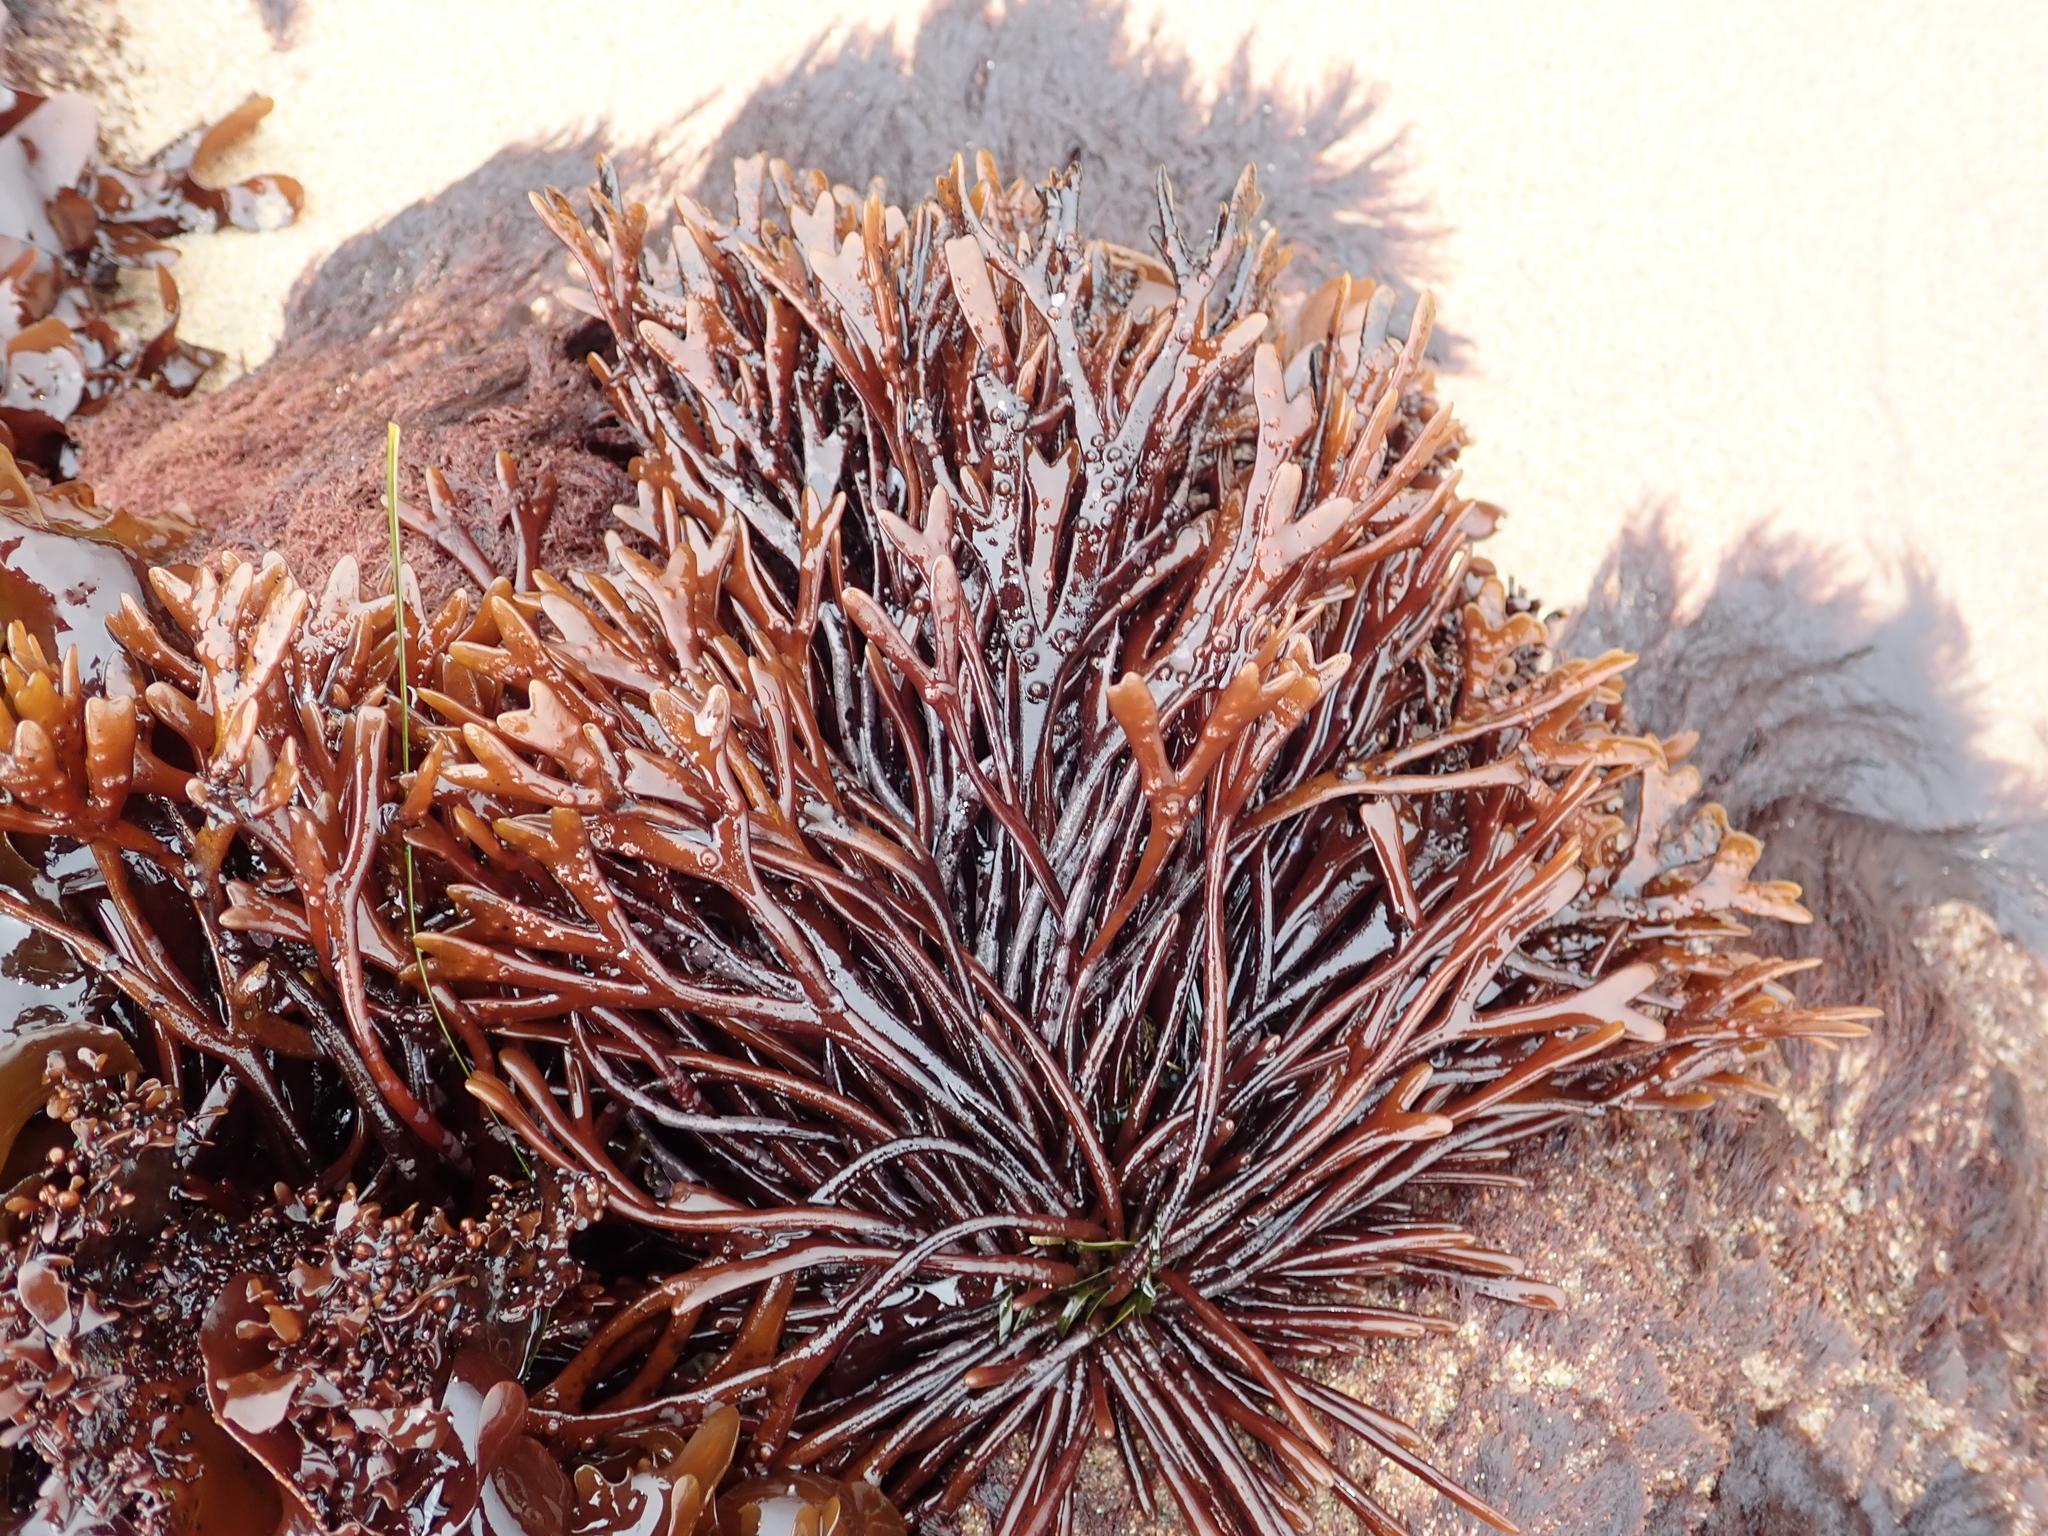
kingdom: Plantae
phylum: Rhodophyta
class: Florideophyceae
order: Gigartinales
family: Phyllophoraceae
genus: Ahnfeltiopsis
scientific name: Ahnfeltiopsis linearis
